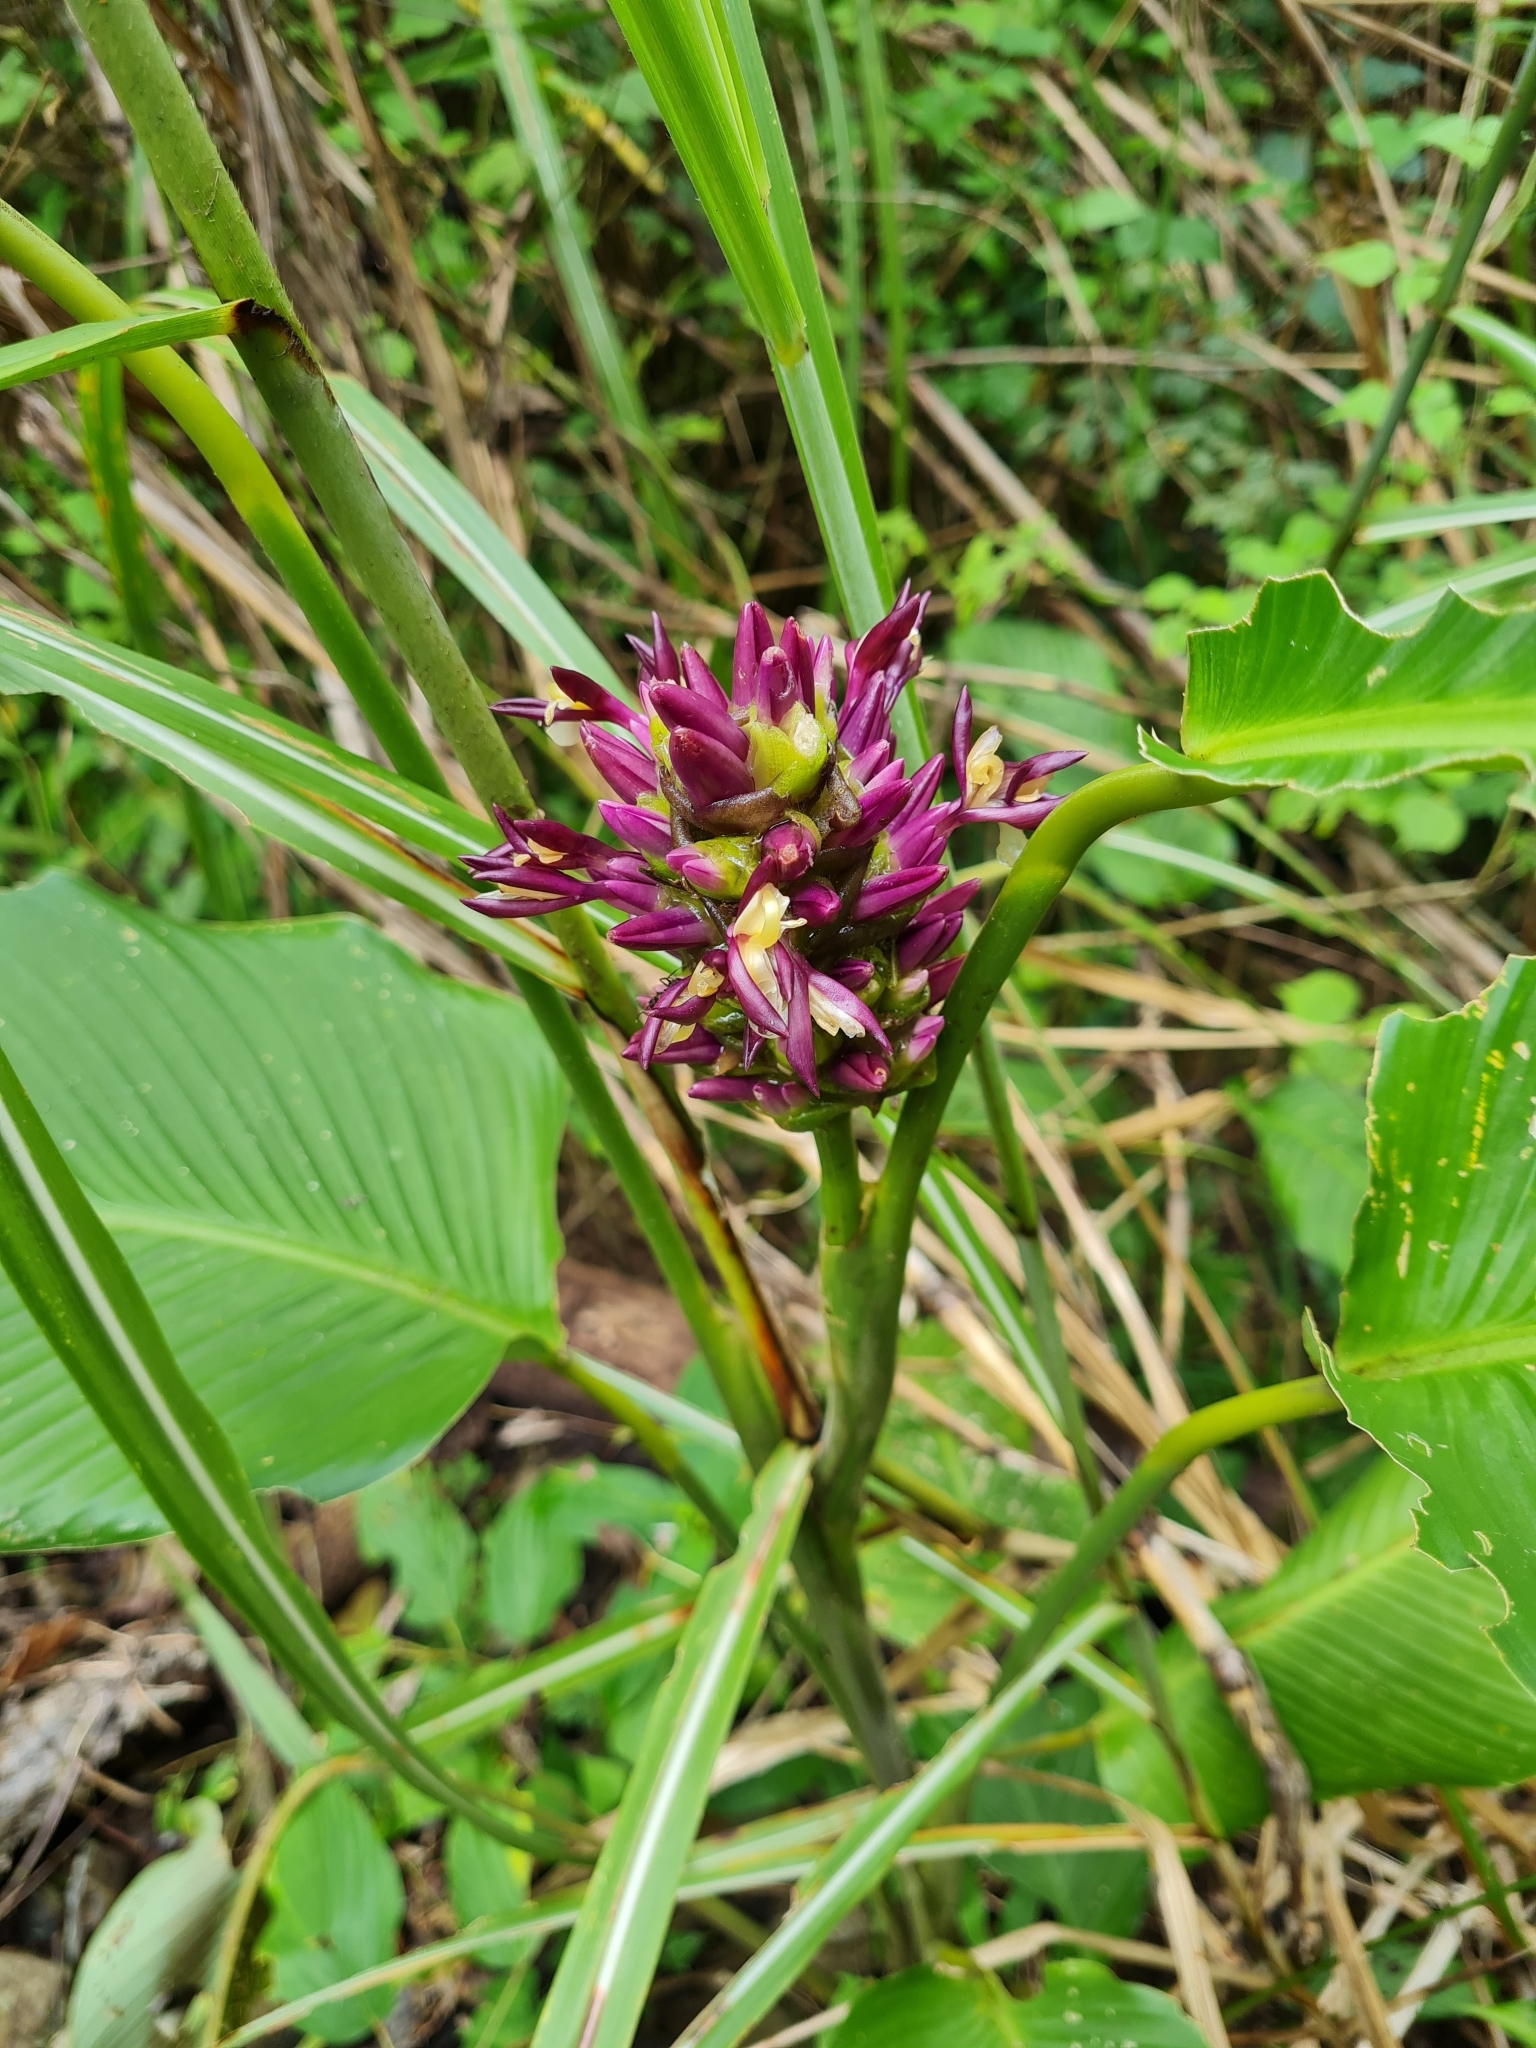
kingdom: Plantae
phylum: Tracheophyta
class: Liliopsida
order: Zingiberales
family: Marantaceae
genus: Goeppertia
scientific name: Goeppertia latifolia
